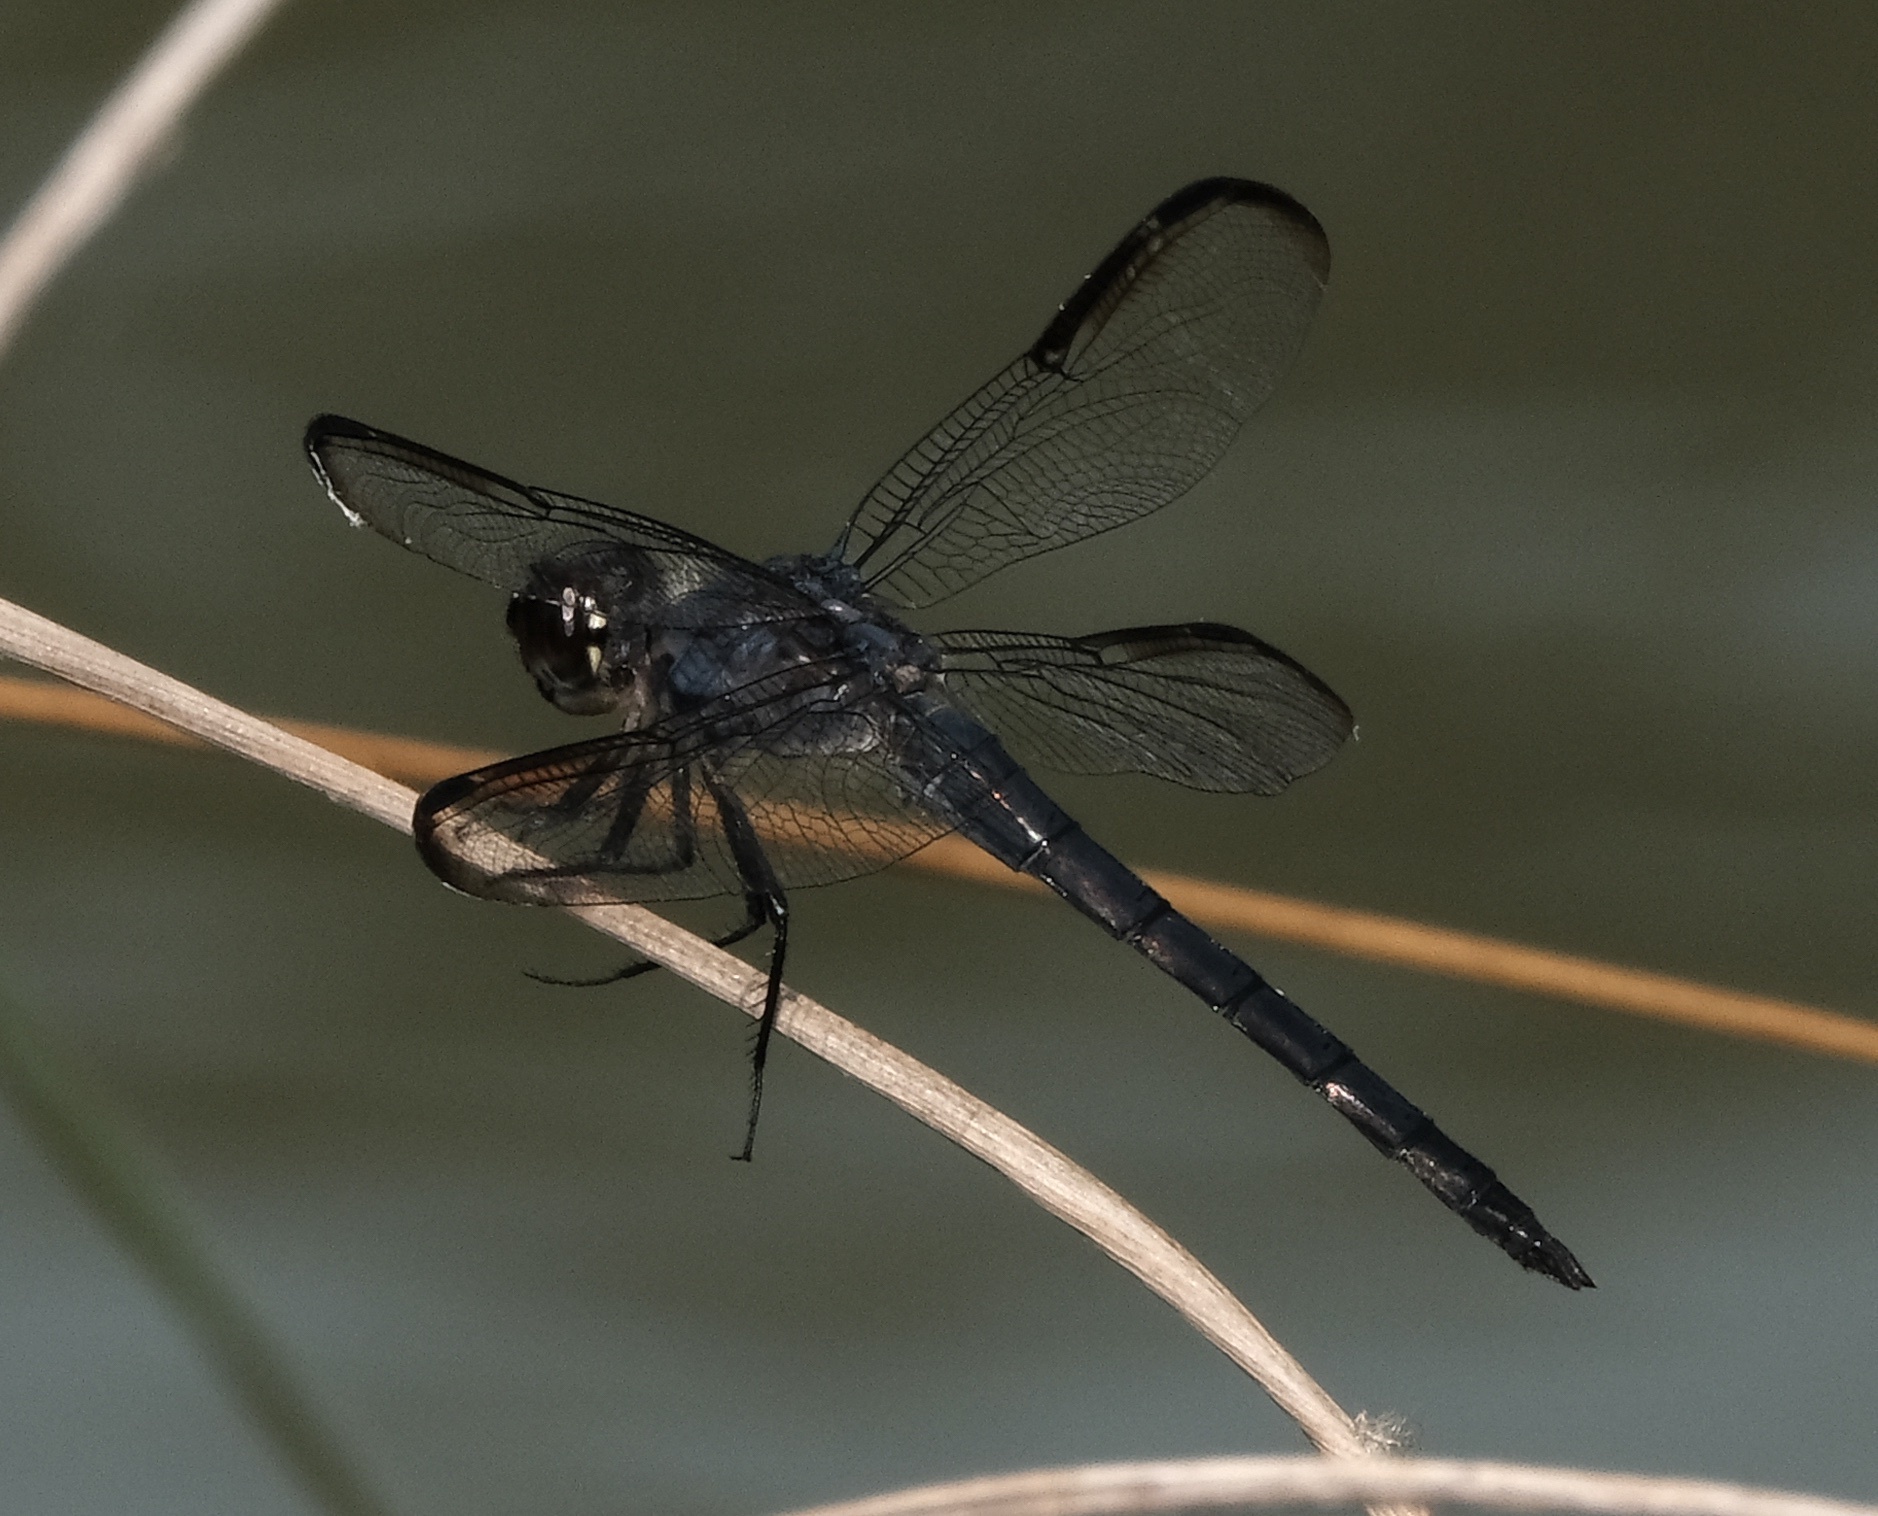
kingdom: Animalia
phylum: Arthropoda
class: Insecta
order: Odonata
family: Libellulidae
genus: Libellula
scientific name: Libellula incesta
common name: Slaty skimmer
